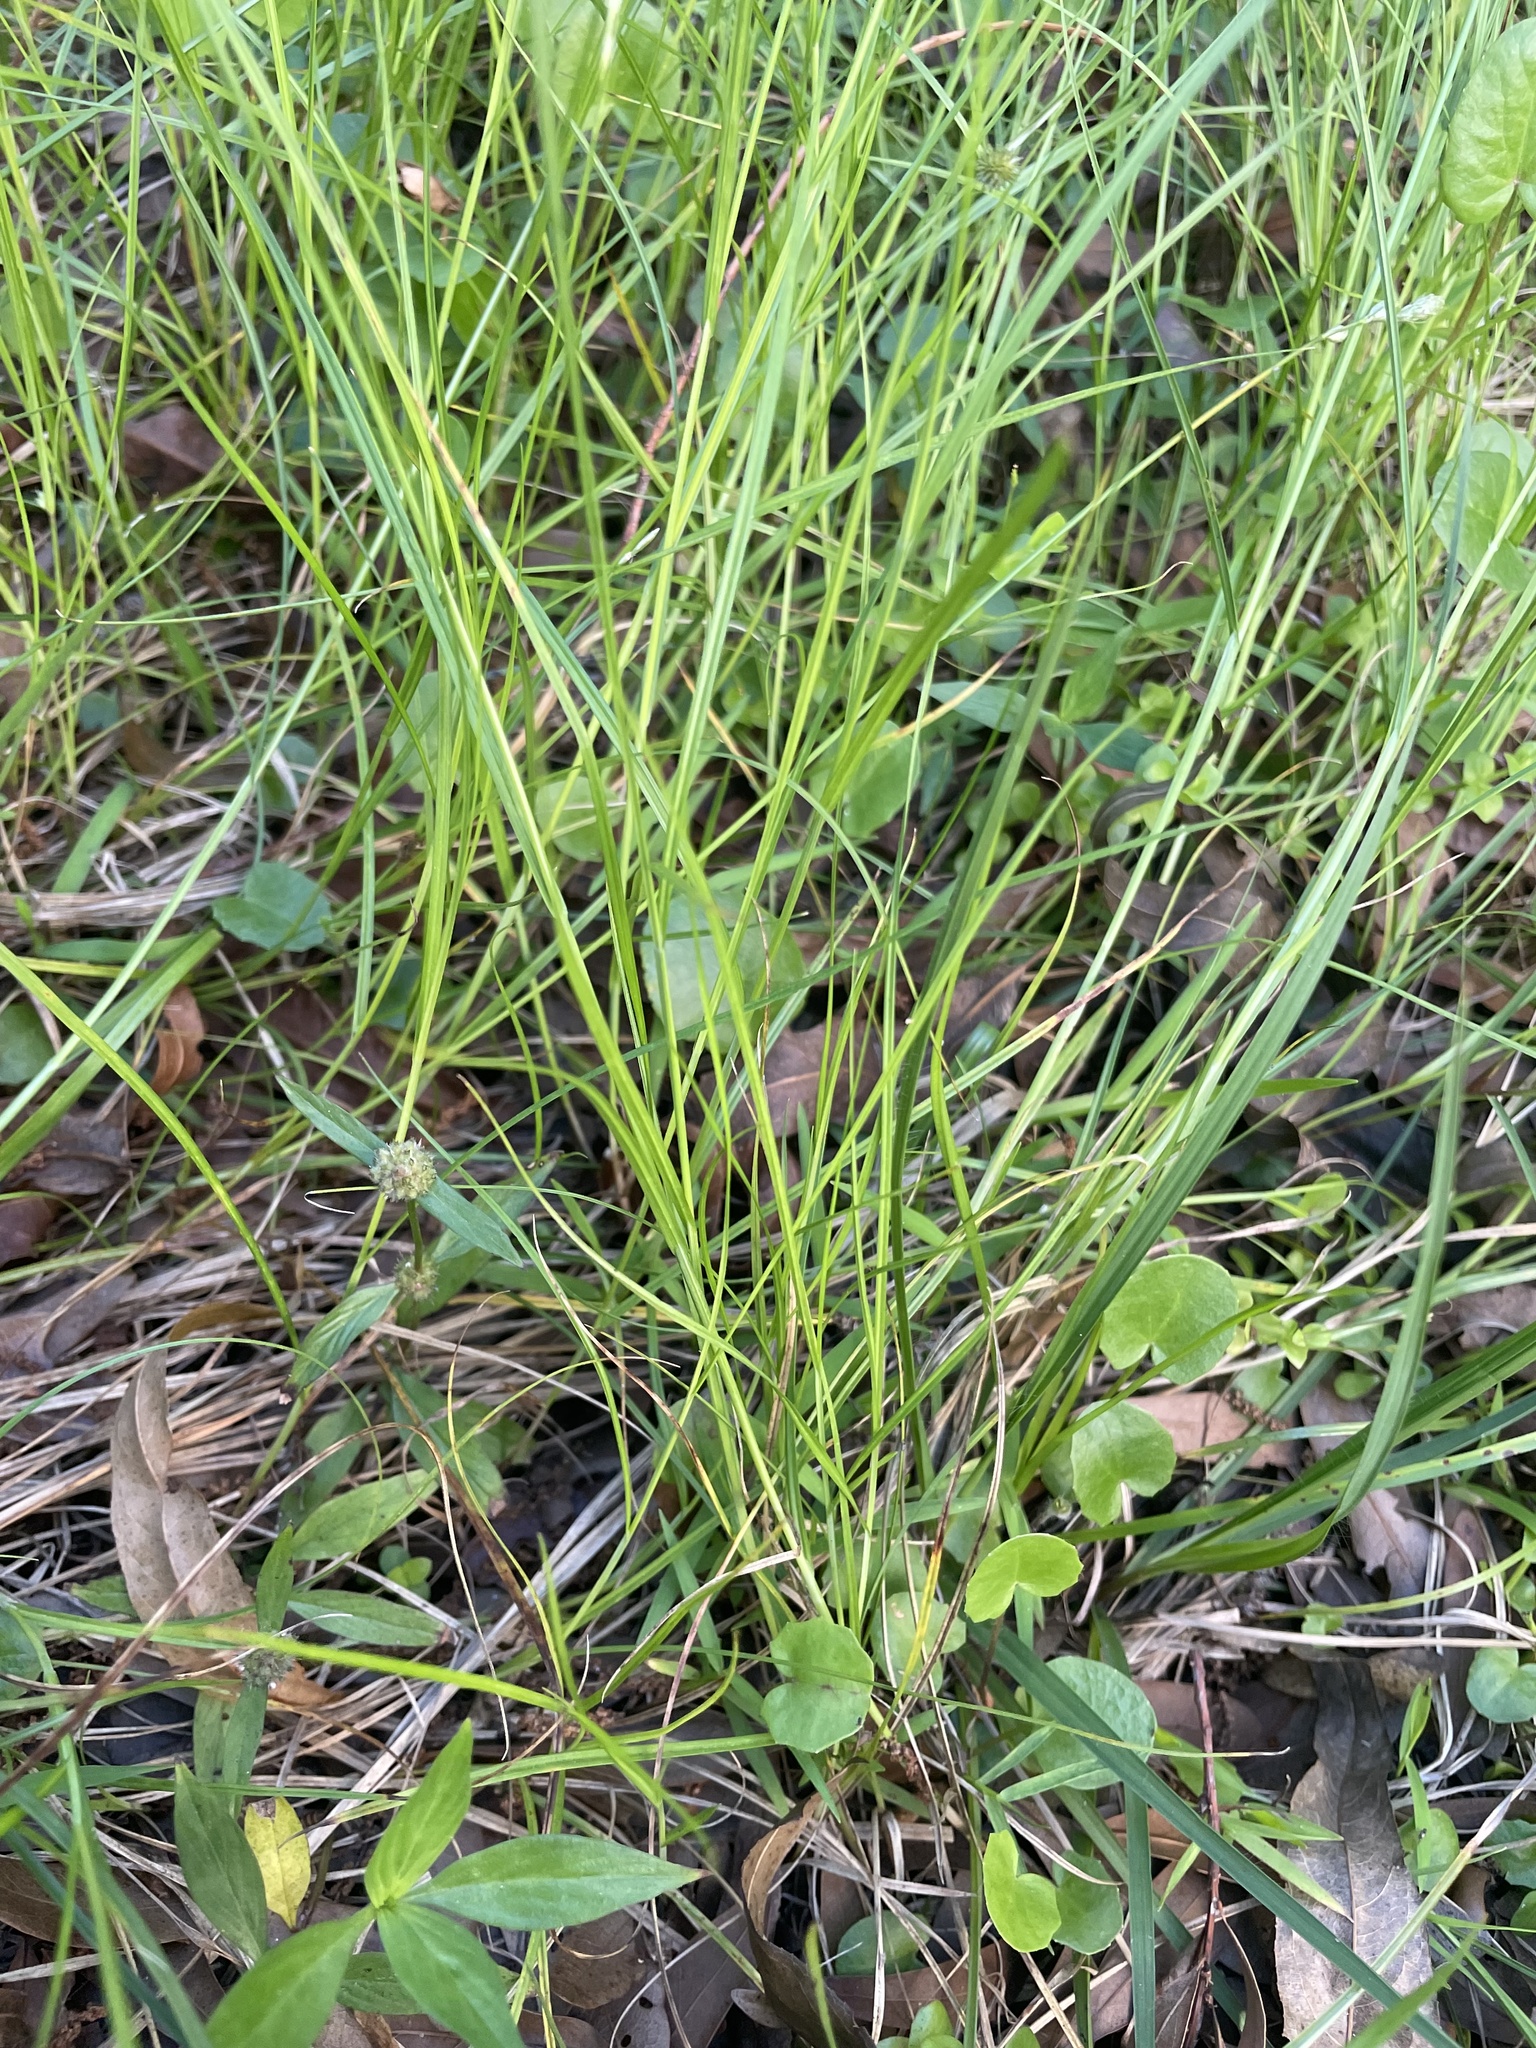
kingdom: Plantae
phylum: Tracheophyta
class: Liliopsida
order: Poales
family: Cyperaceae
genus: Carex
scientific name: Carex longii
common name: Long's sedge
